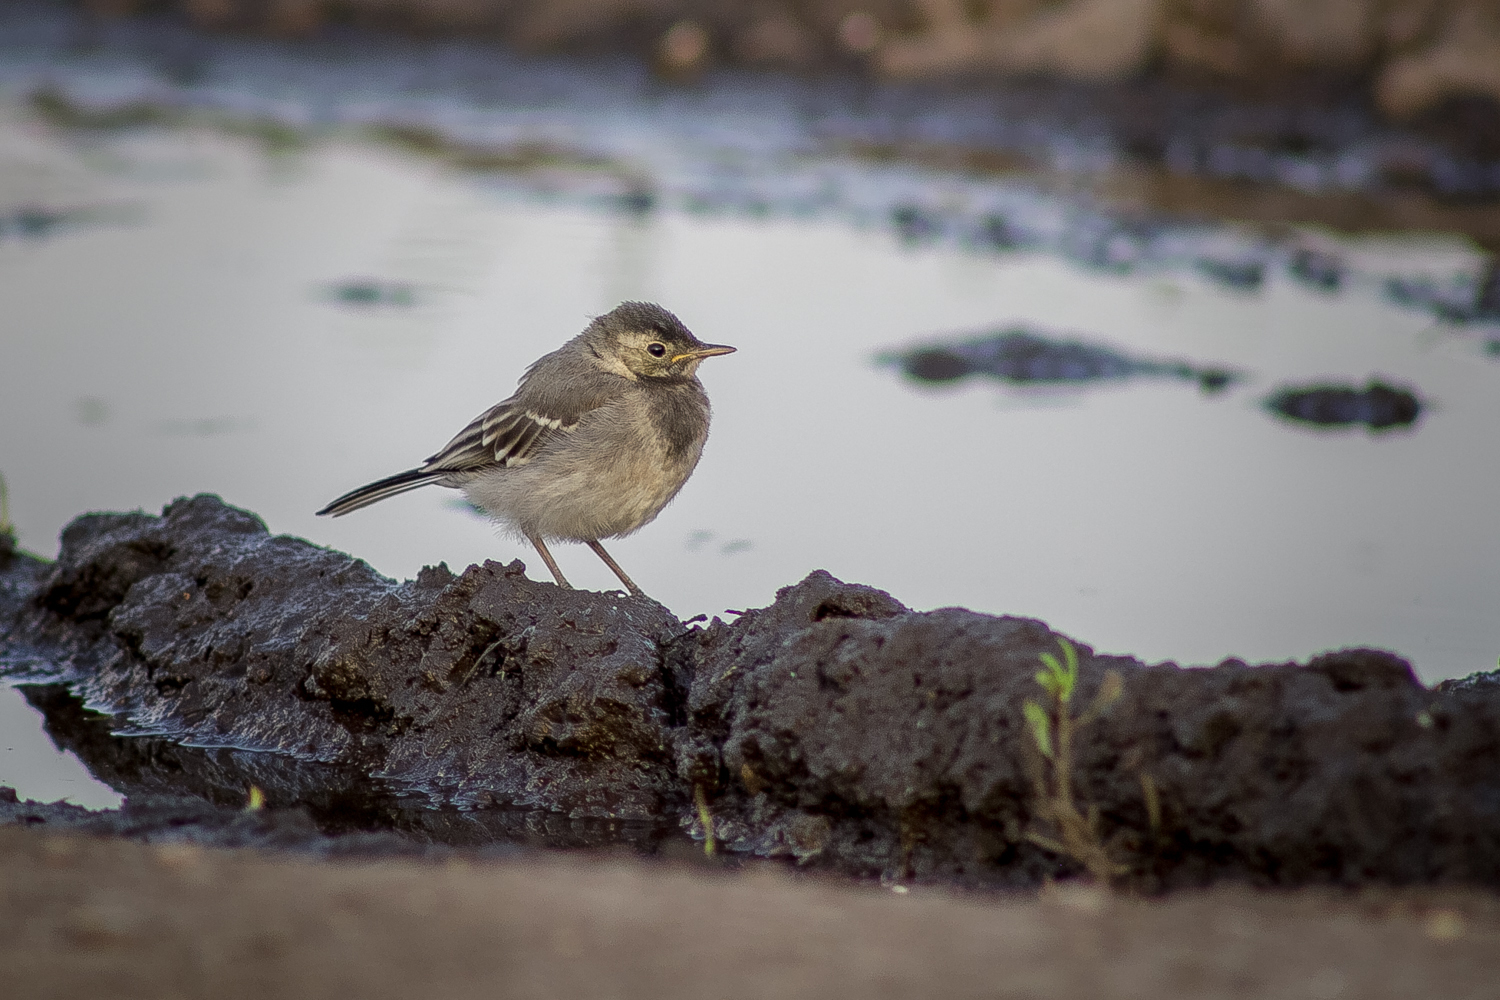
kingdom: Animalia
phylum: Chordata
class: Aves
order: Passeriformes
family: Motacillidae
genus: Motacilla
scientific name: Motacilla alba
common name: White wagtail
